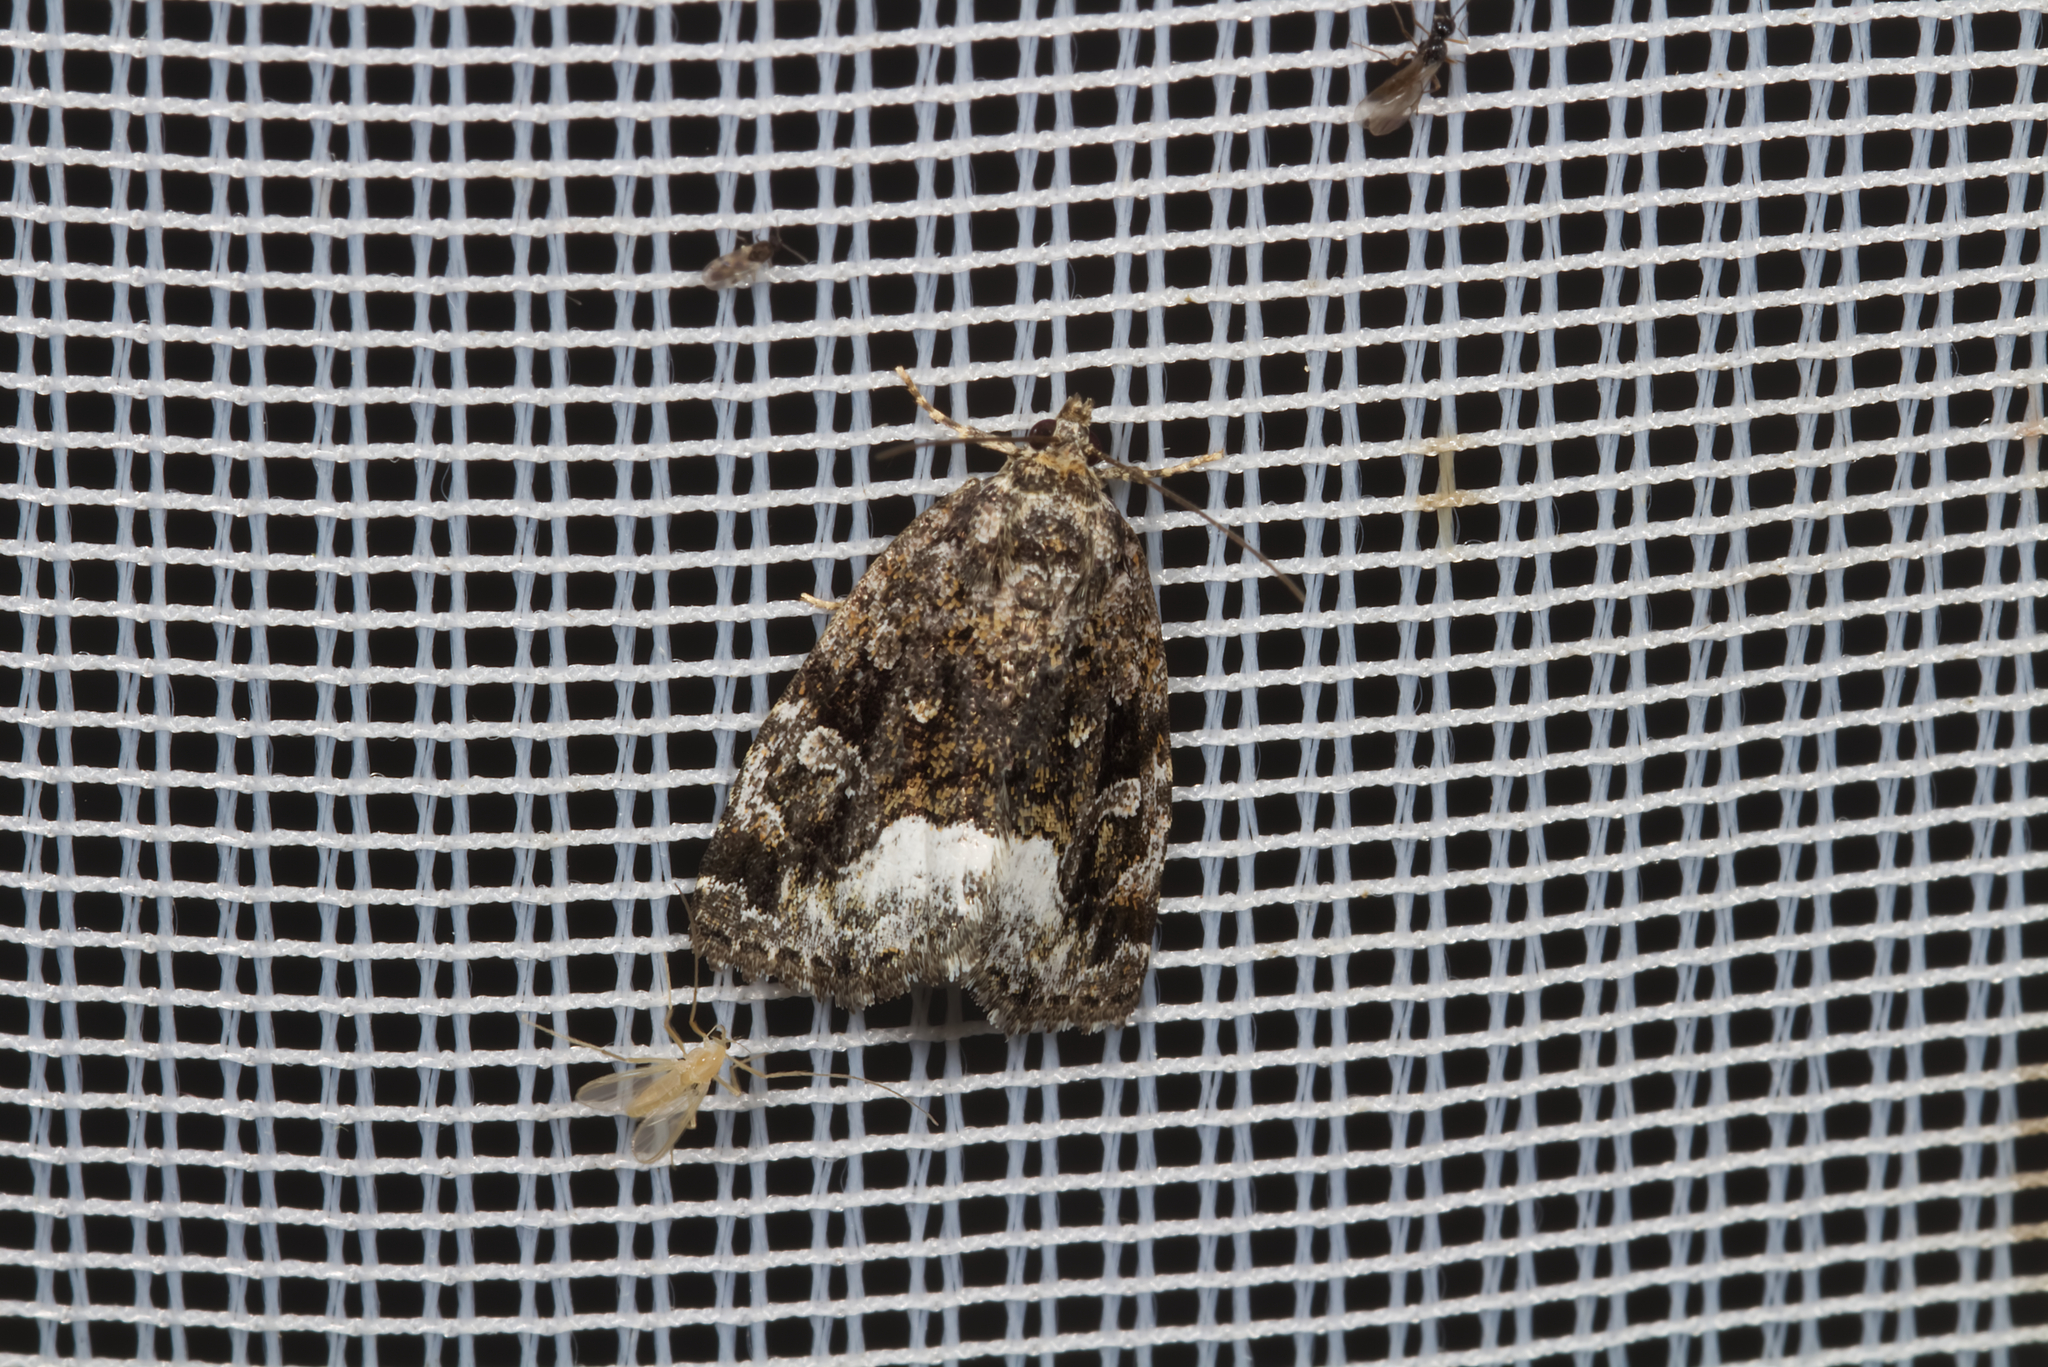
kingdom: Animalia
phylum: Arthropoda
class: Insecta
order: Lepidoptera
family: Noctuidae
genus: Deltote
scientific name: Deltote pygarga
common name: Marbled white spot
